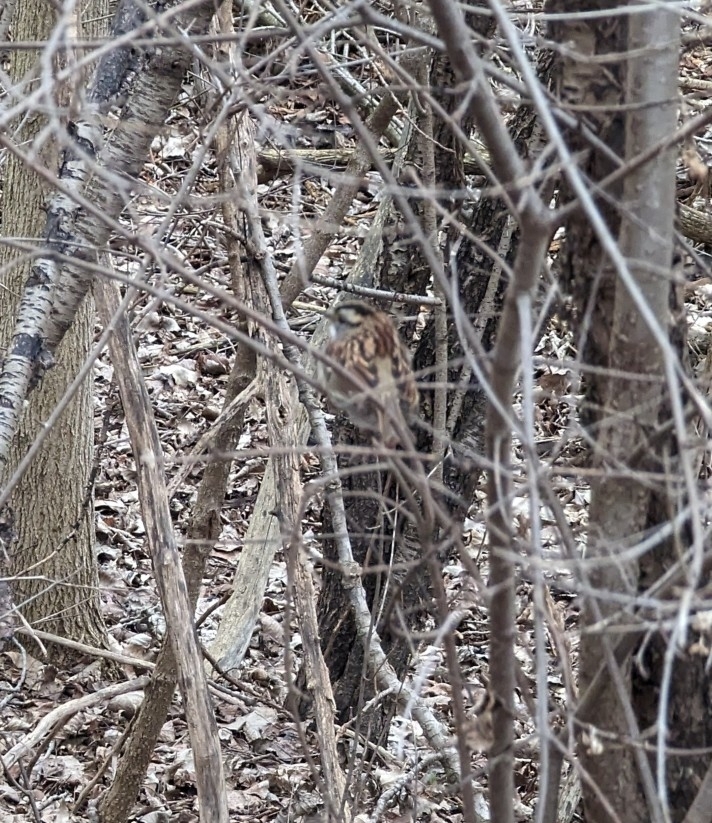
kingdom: Animalia
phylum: Chordata
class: Aves
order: Passeriformes
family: Passerellidae
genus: Zonotrichia
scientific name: Zonotrichia albicollis
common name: White-throated sparrow
